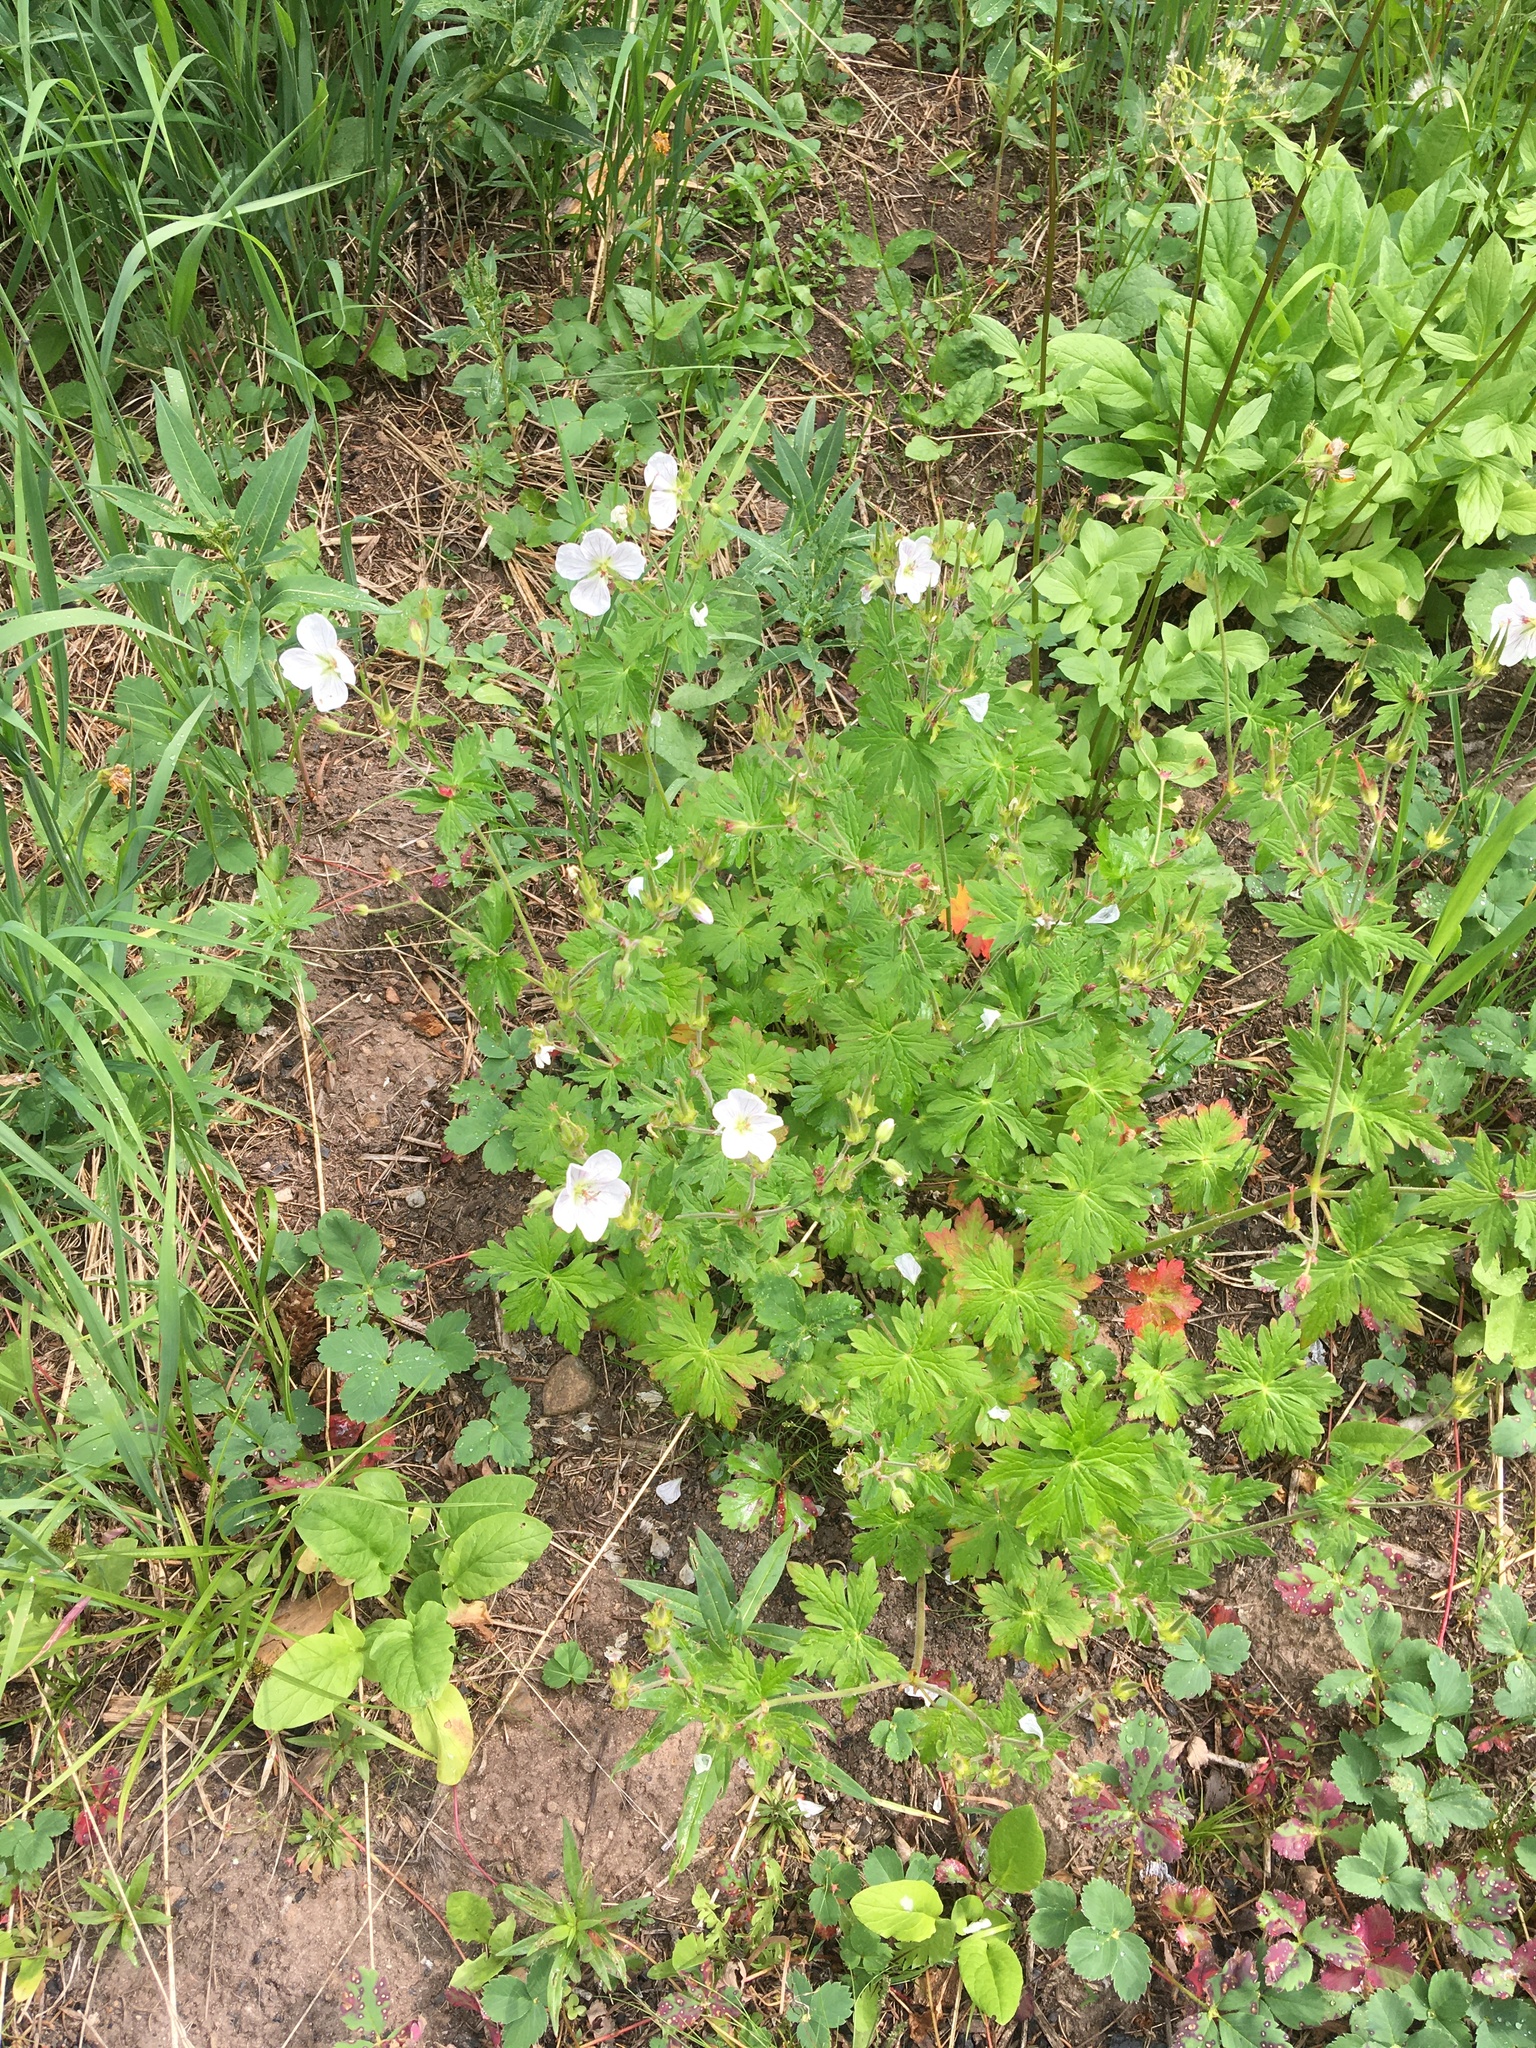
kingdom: Plantae
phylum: Tracheophyta
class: Magnoliopsida
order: Geraniales
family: Geraniaceae
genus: Geranium
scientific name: Geranium richardsonii
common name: Richardson's crane's-bill
